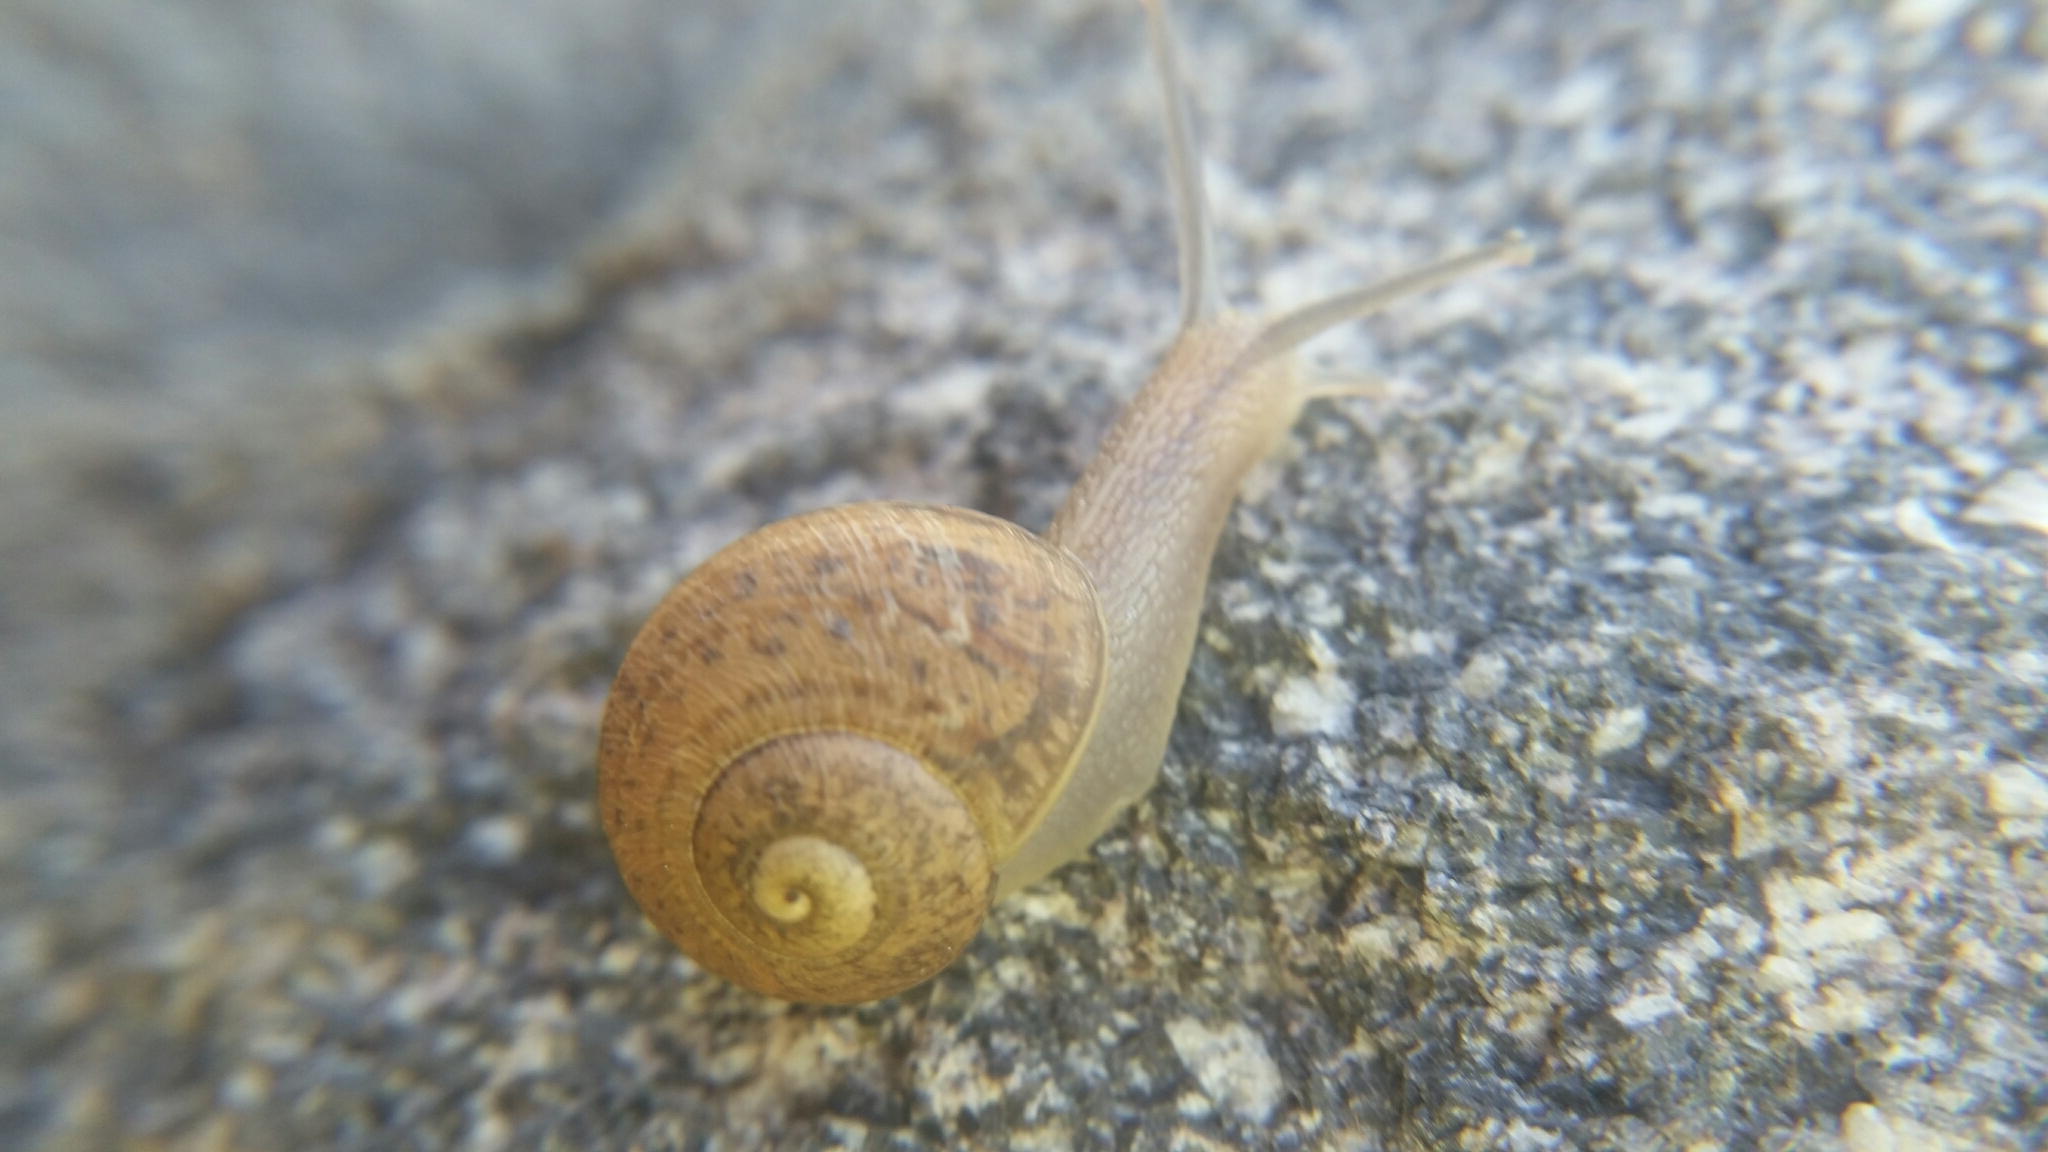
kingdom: Animalia
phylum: Mollusca
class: Gastropoda
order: Stylommatophora
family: Helicidae
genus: Cornu
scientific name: Cornu aspersum
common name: Brown garden snail
